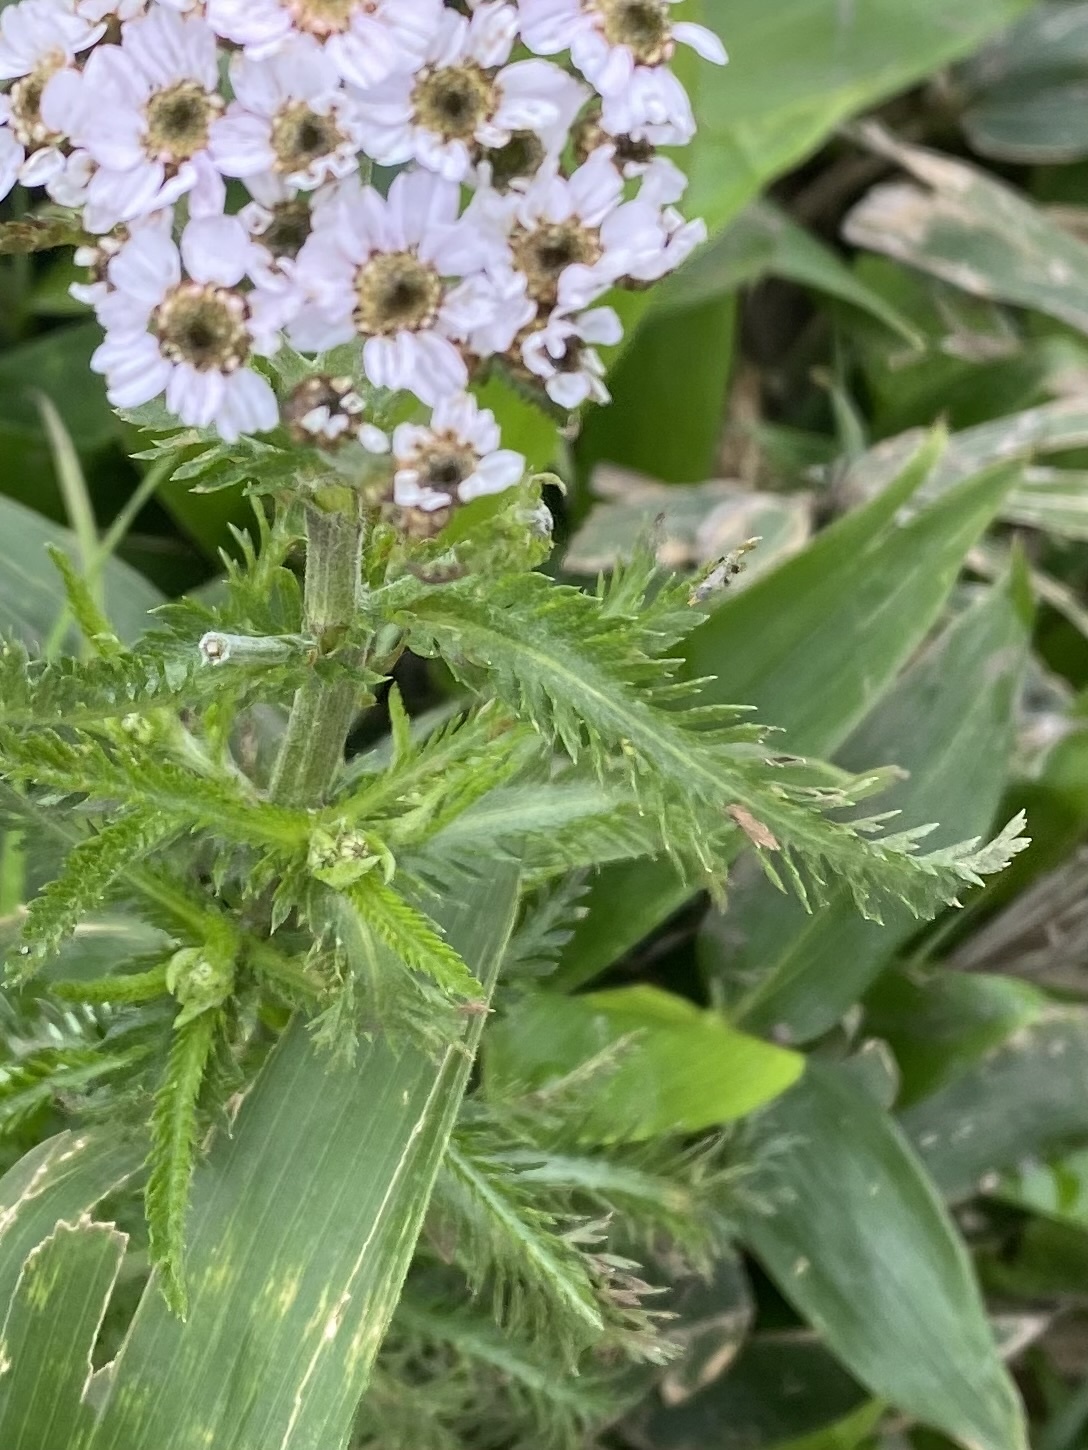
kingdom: Plantae
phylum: Tracheophyta
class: Magnoliopsida
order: Asterales
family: Asteraceae
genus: Achillea
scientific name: Achillea alpina
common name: Siberian yarrow
